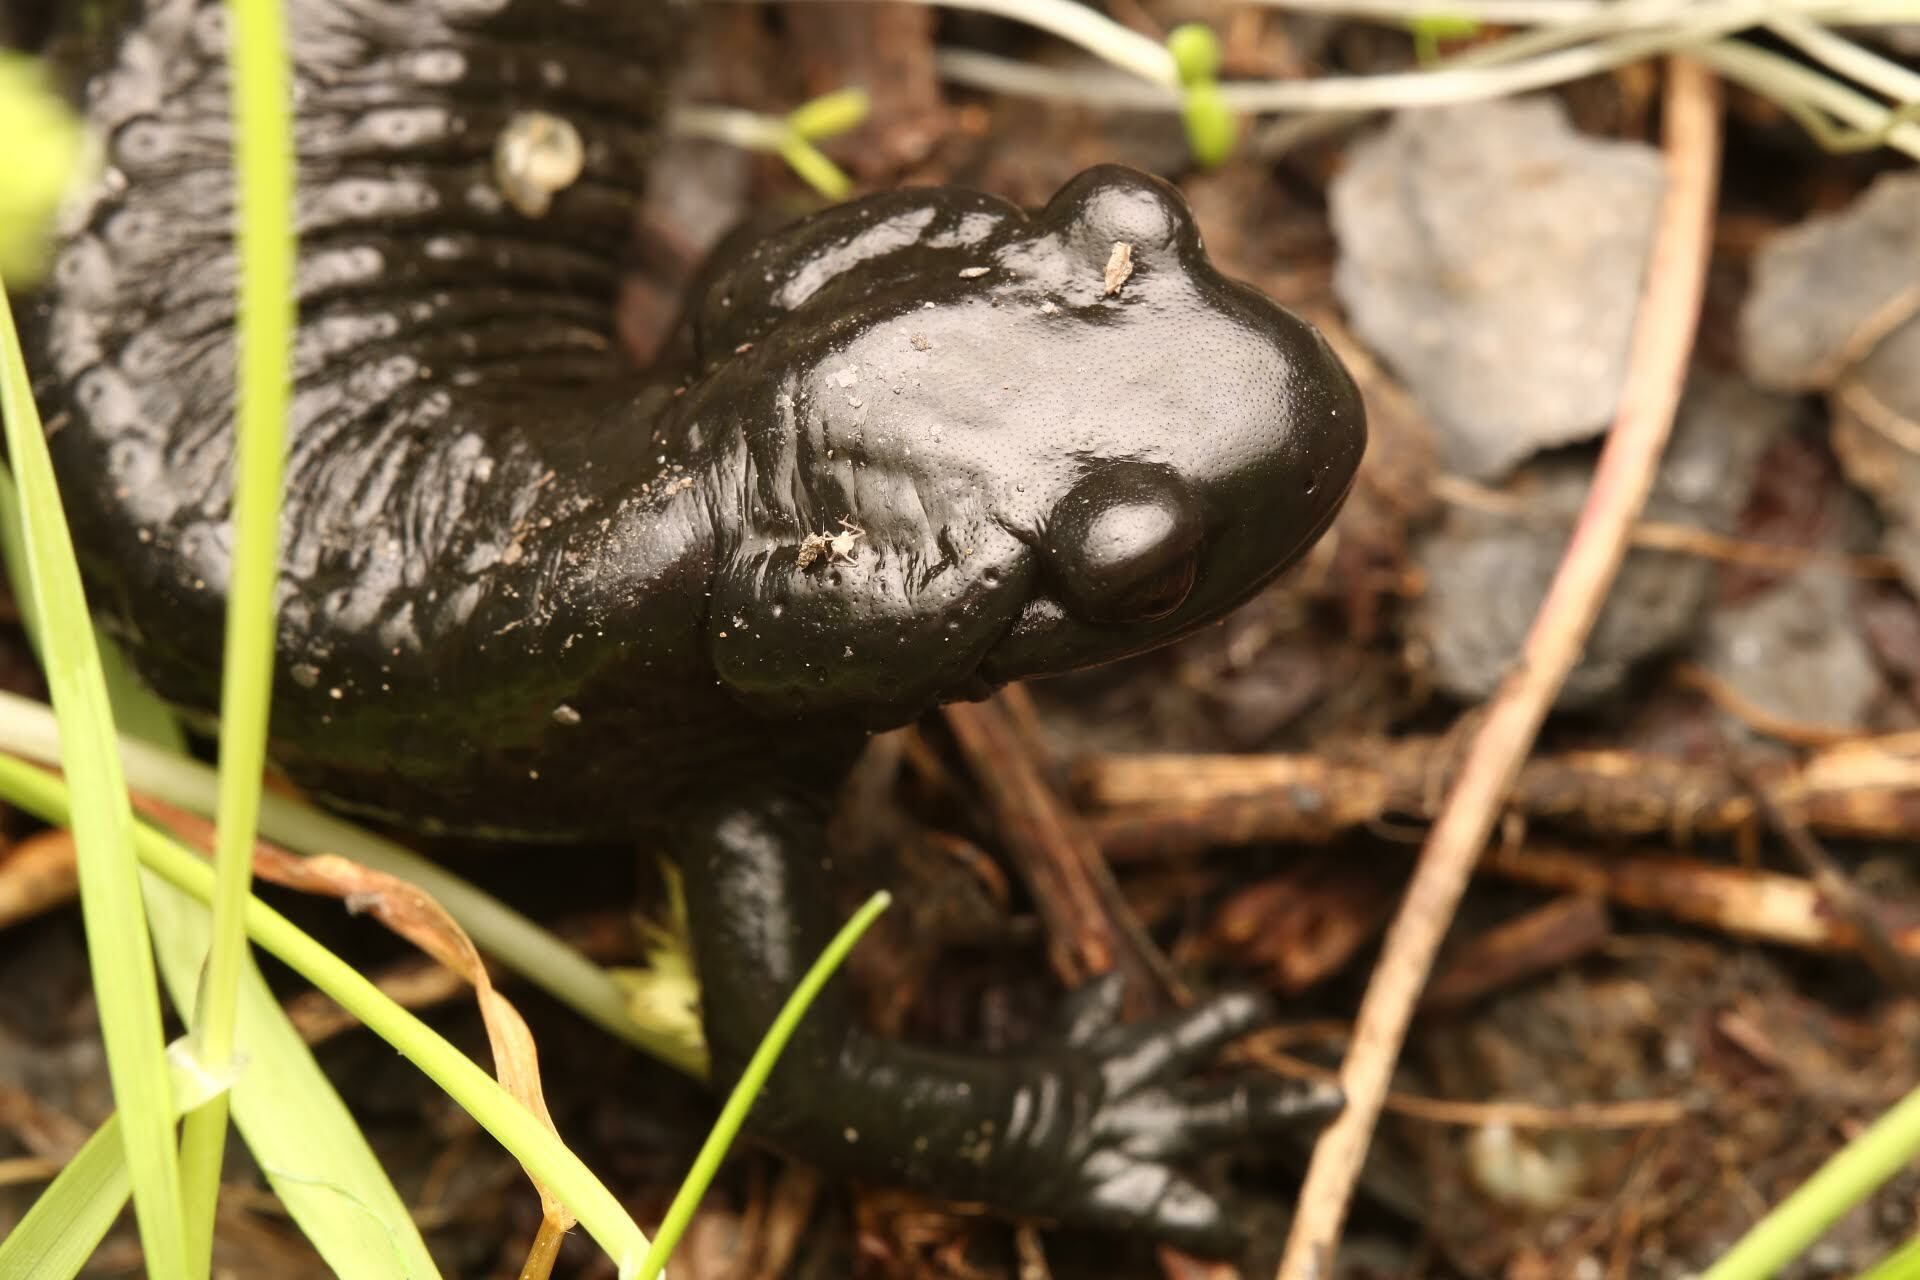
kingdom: Animalia
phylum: Chordata
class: Amphibia
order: Caudata
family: Salamandridae
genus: Salamandra
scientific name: Salamandra atra
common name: Alpine salamander
